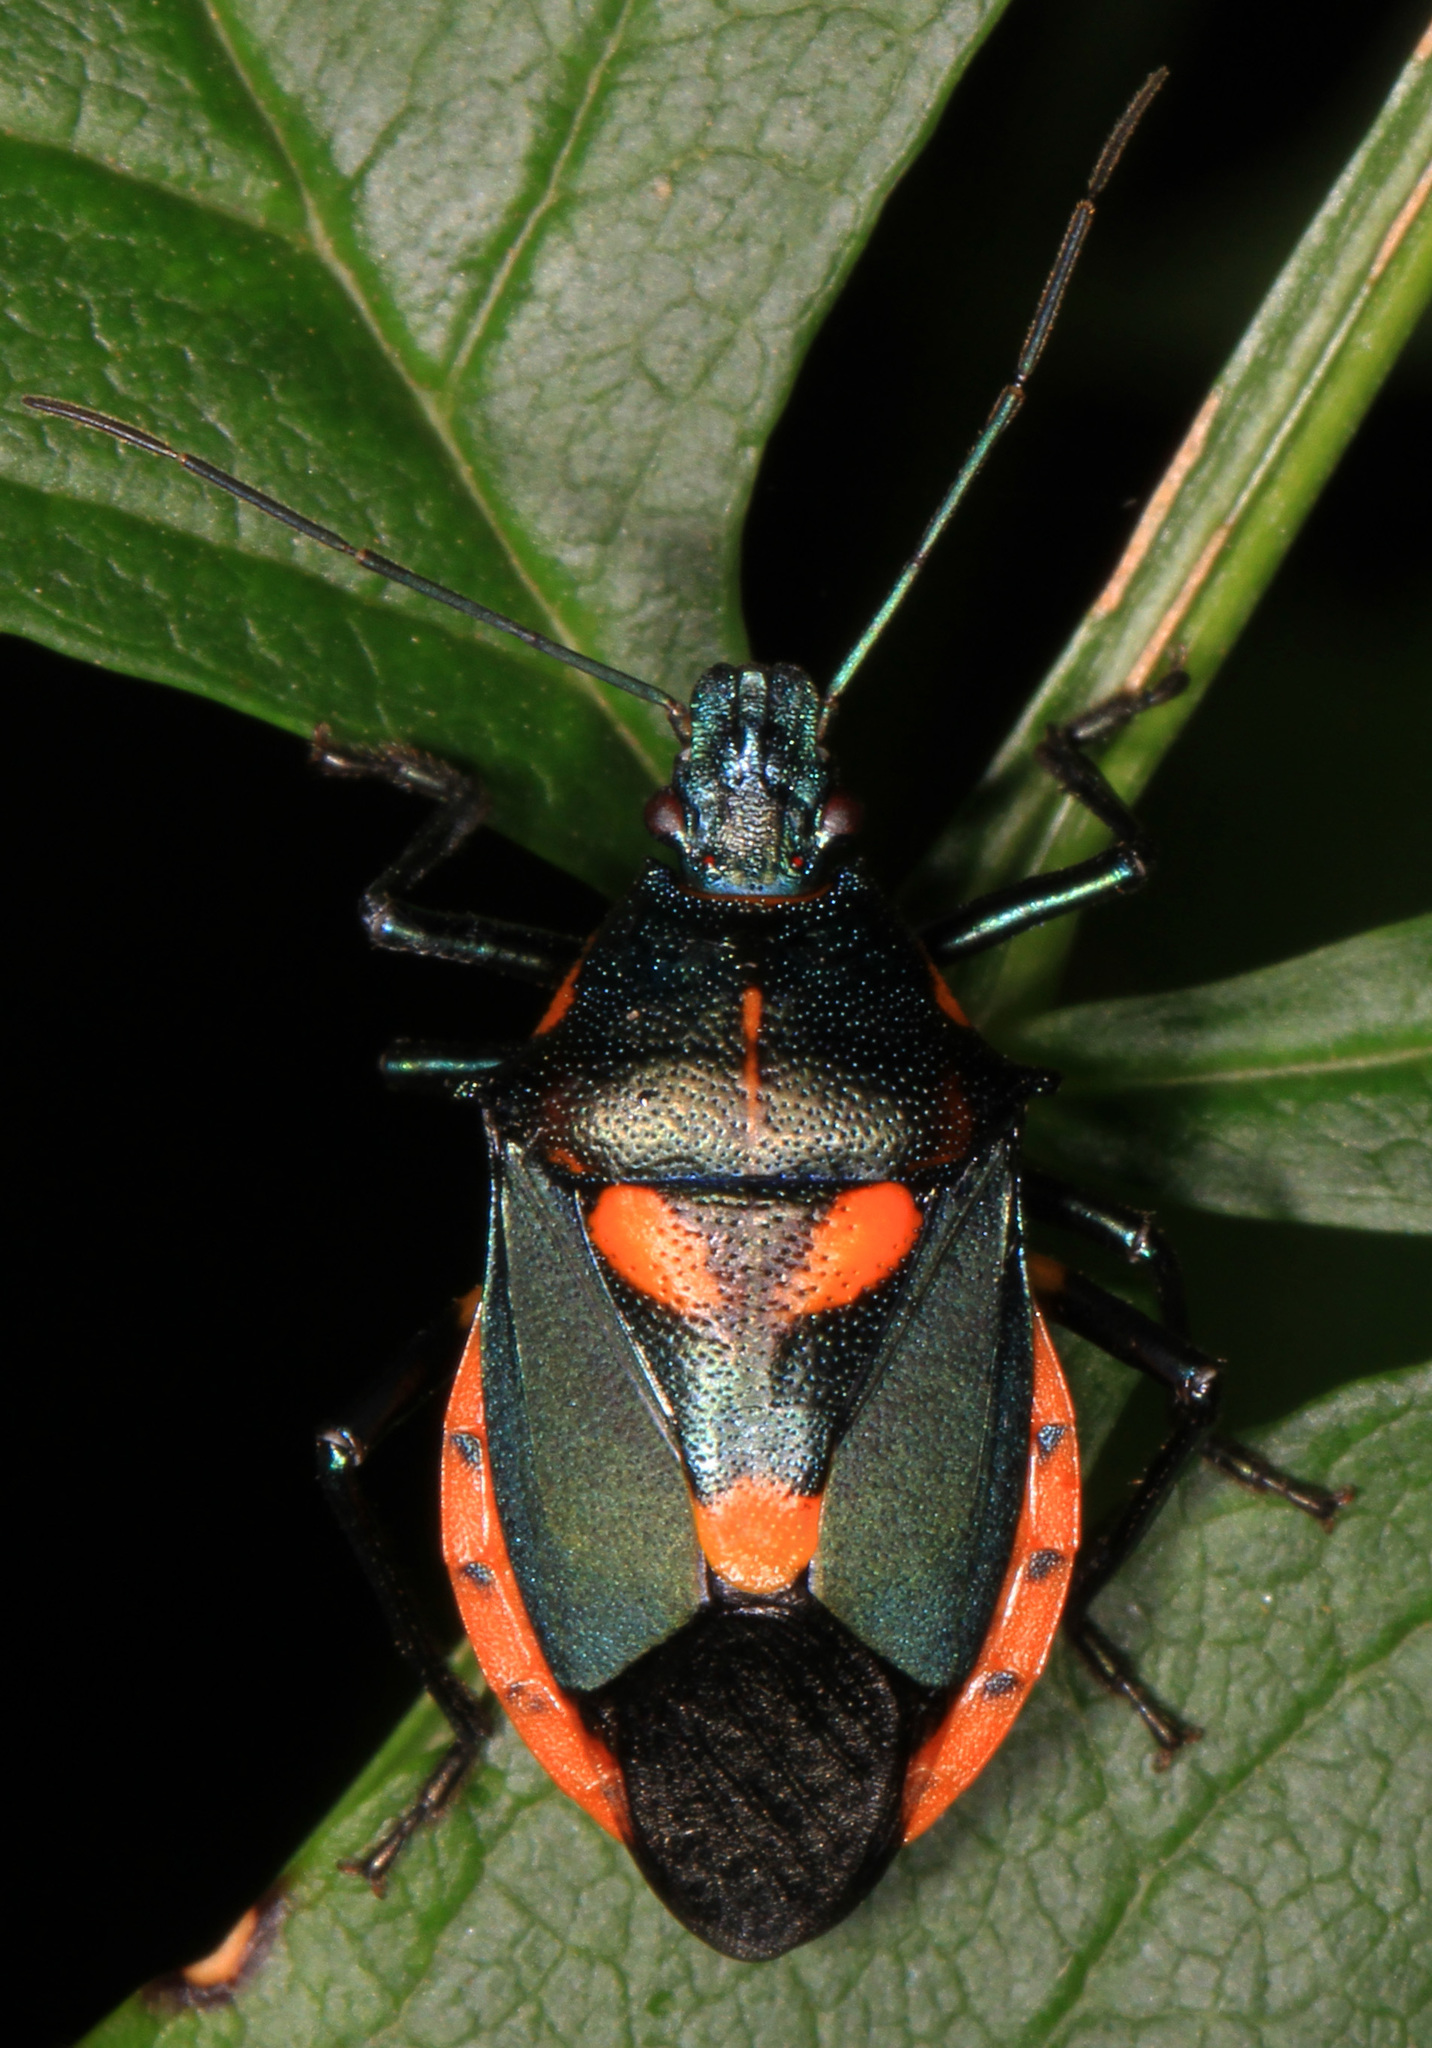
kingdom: Animalia
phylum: Arthropoda
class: Insecta
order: Hemiptera
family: Pentatomidae
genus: Euthyrhynchus
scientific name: Euthyrhynchus floridanus
